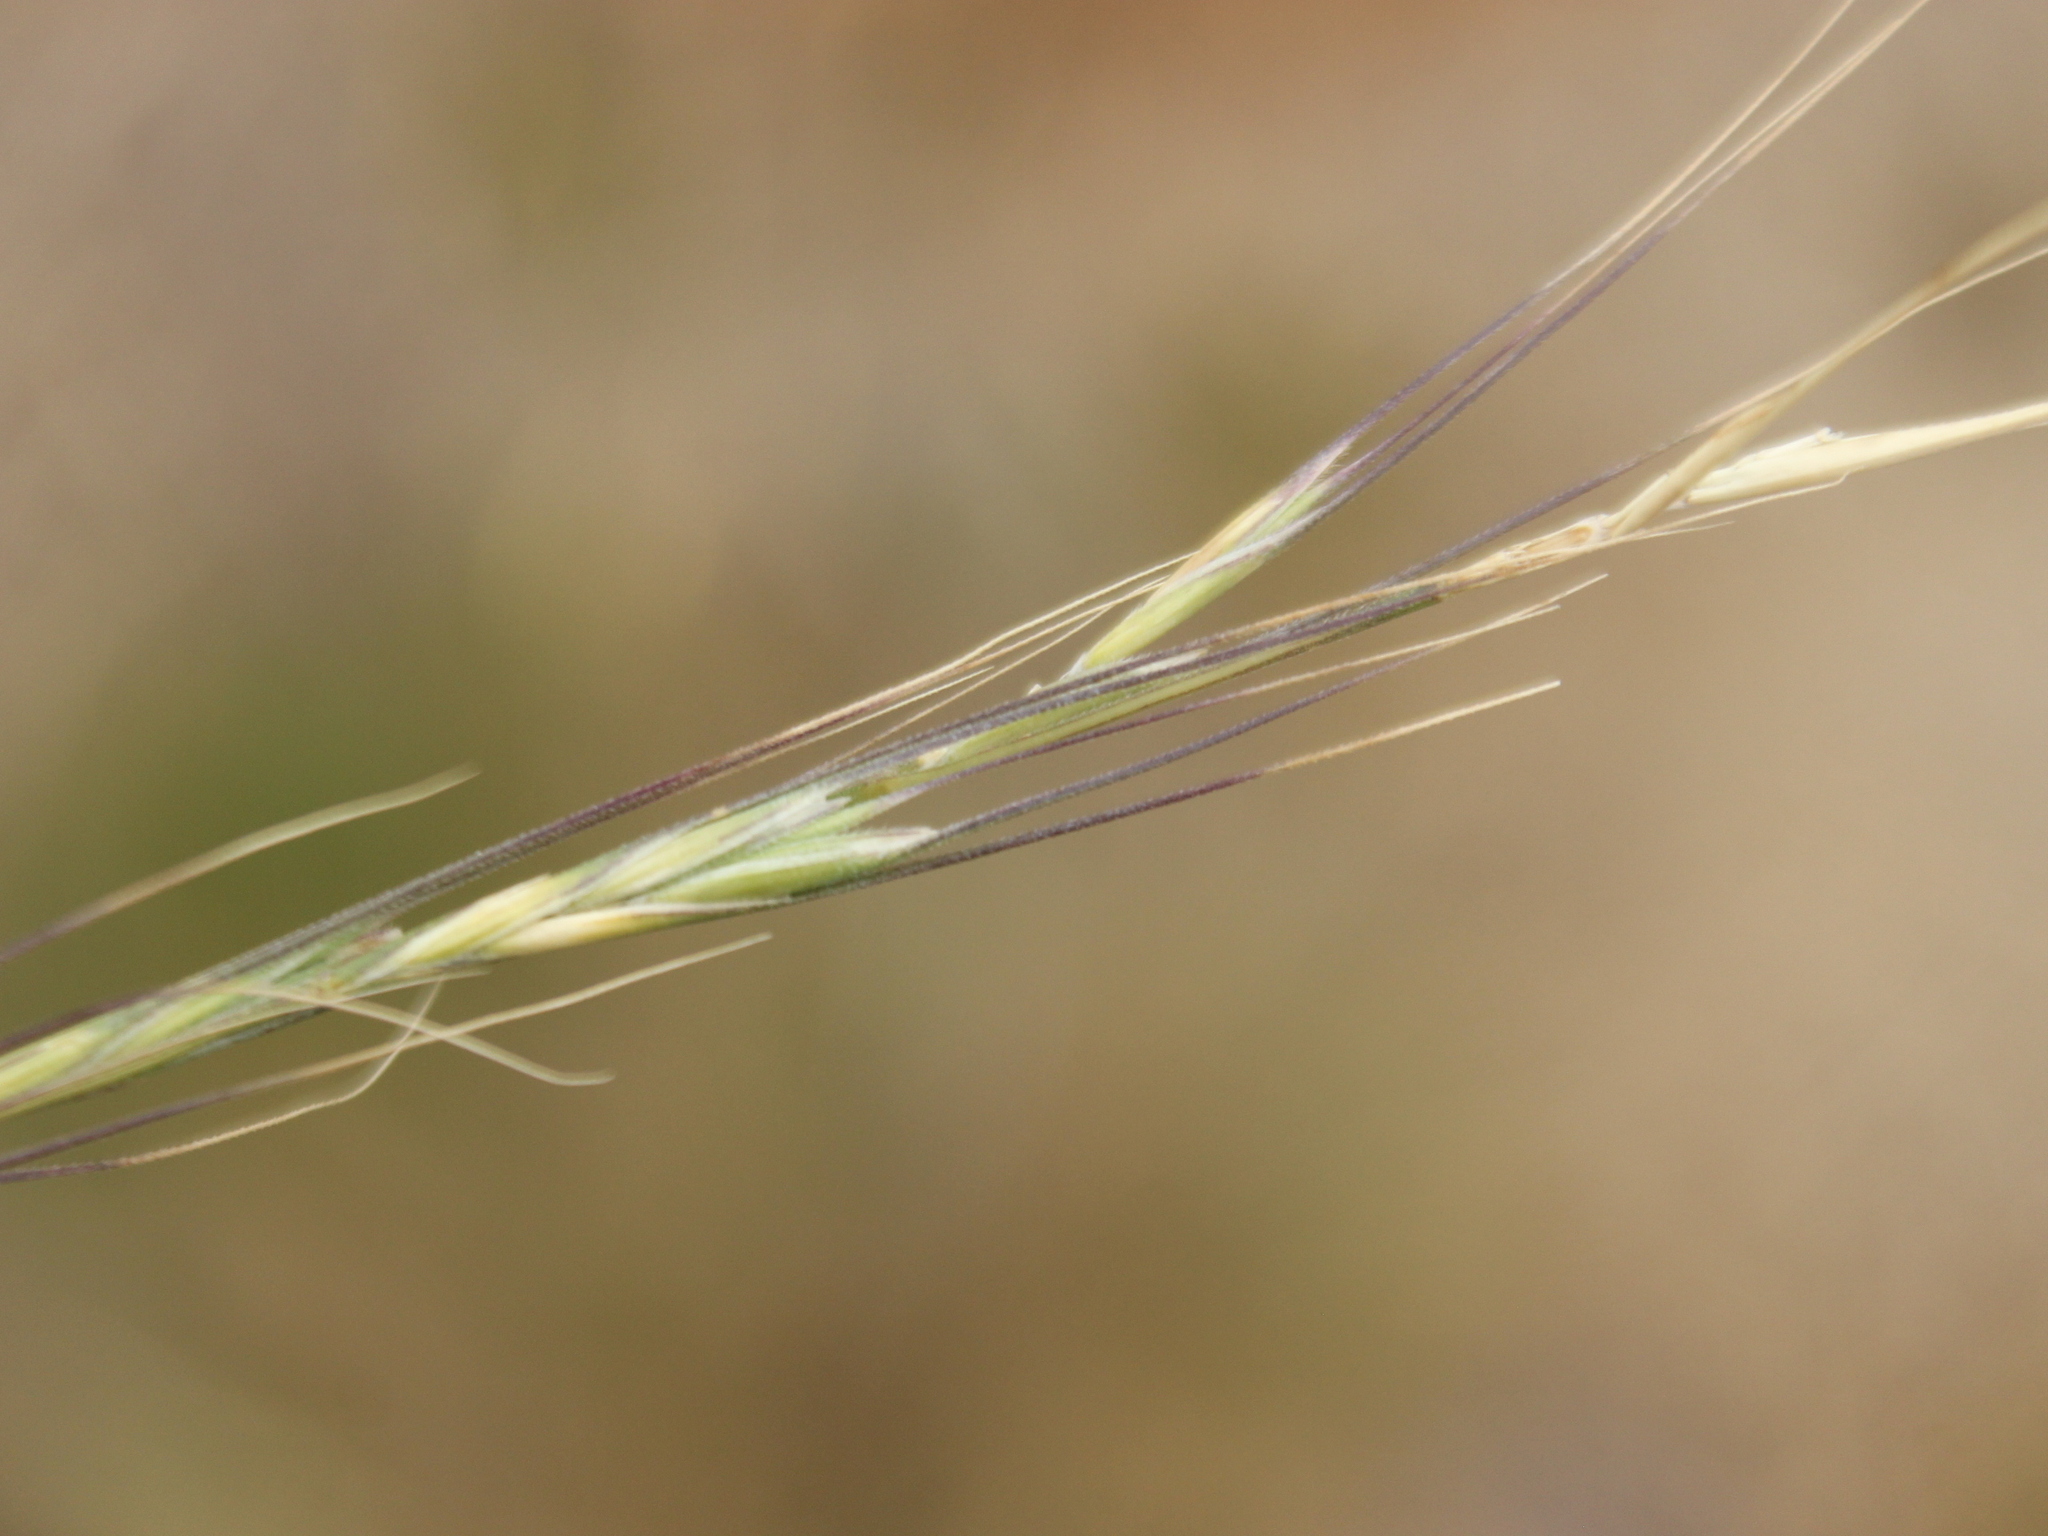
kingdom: Plantae
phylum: Tracheophyta
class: Liliopsida
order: Poales
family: Poaceae
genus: Anthosachne
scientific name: Anthosachne scabra
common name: Common wheatgrass
